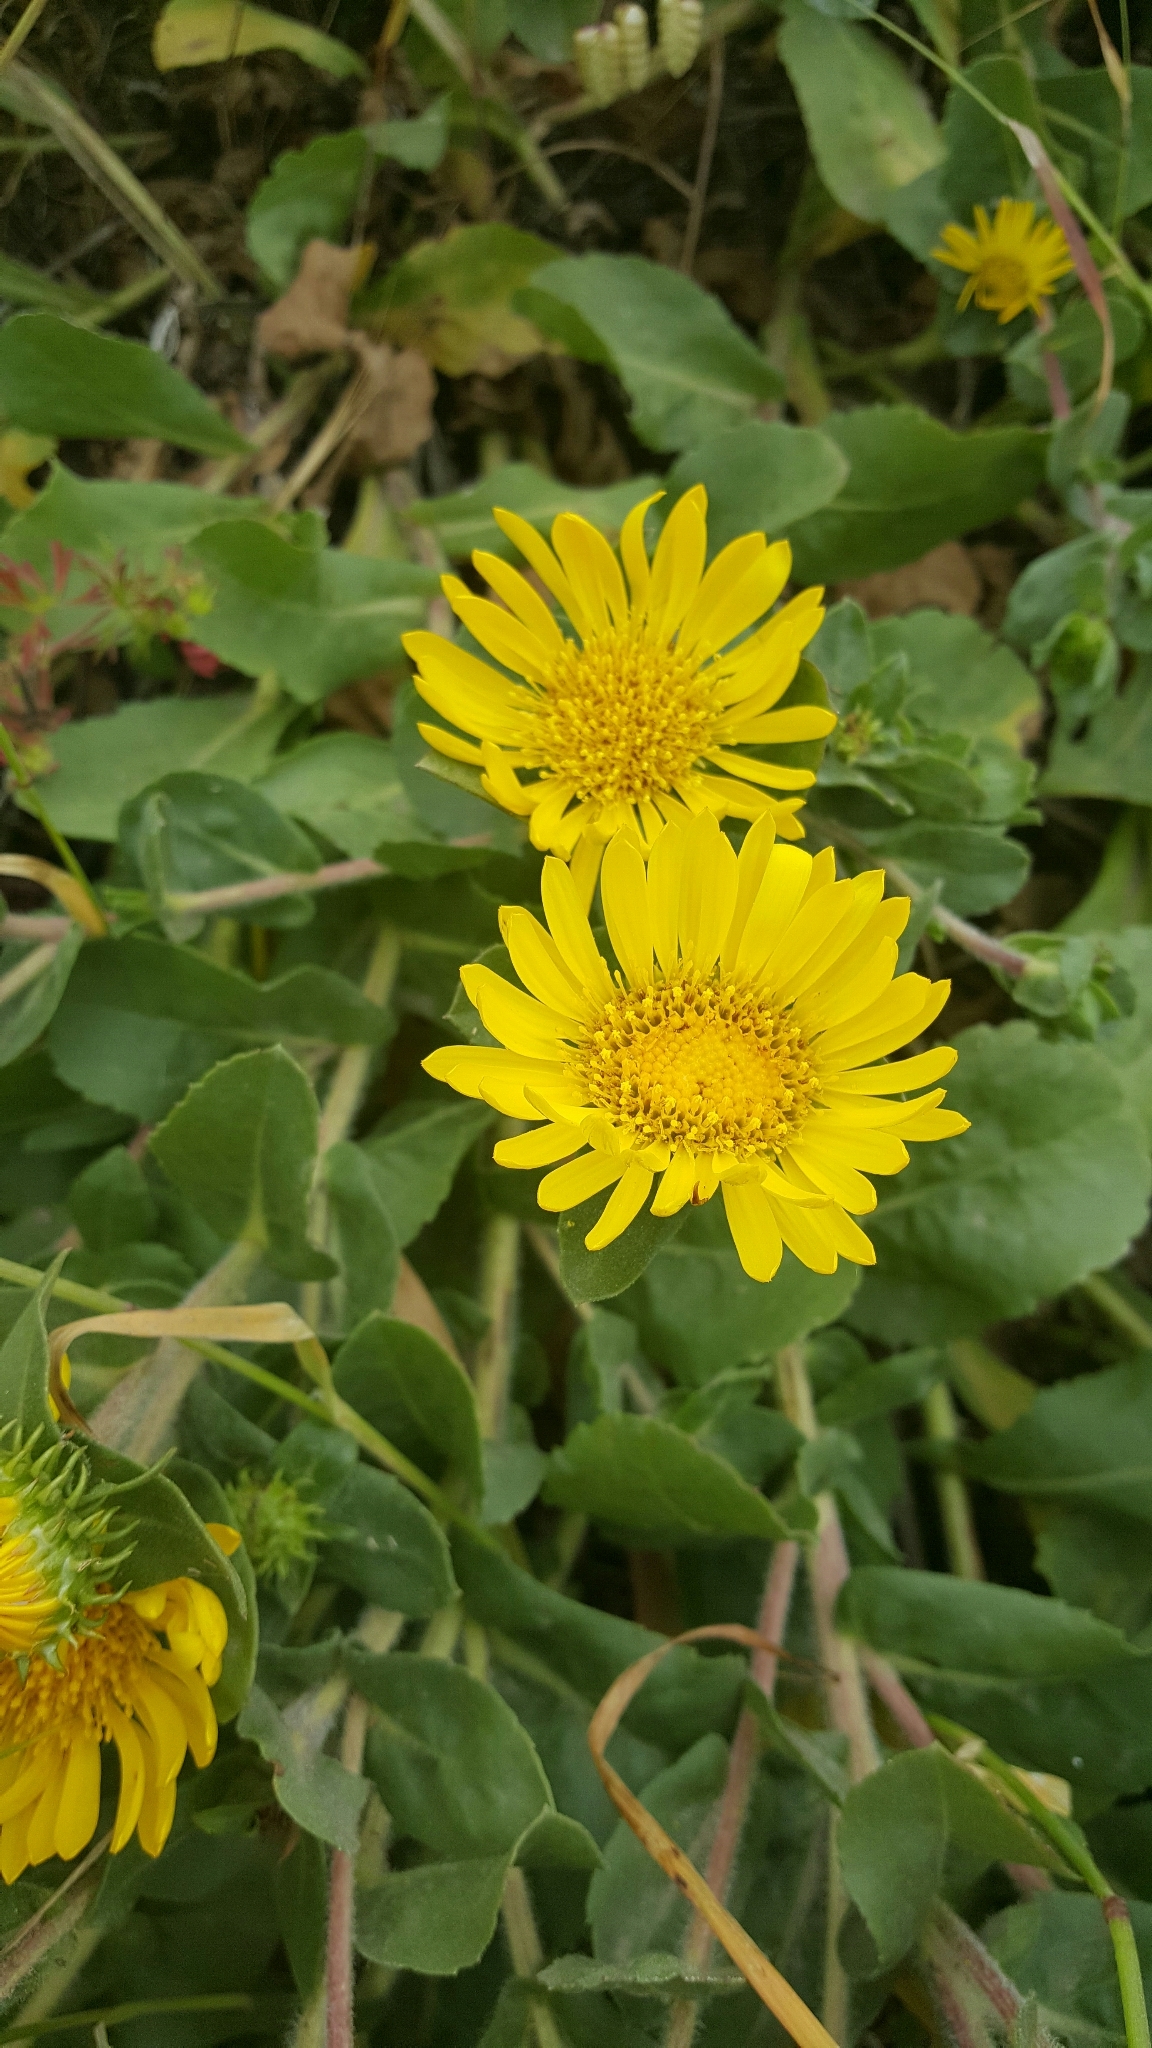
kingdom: Plantae
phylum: Tracheophyta
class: Magnoliopsida
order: Asterales
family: Asteraceae
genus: Grindelia
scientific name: Grindelia hirsutula
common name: Hairy gumweed
